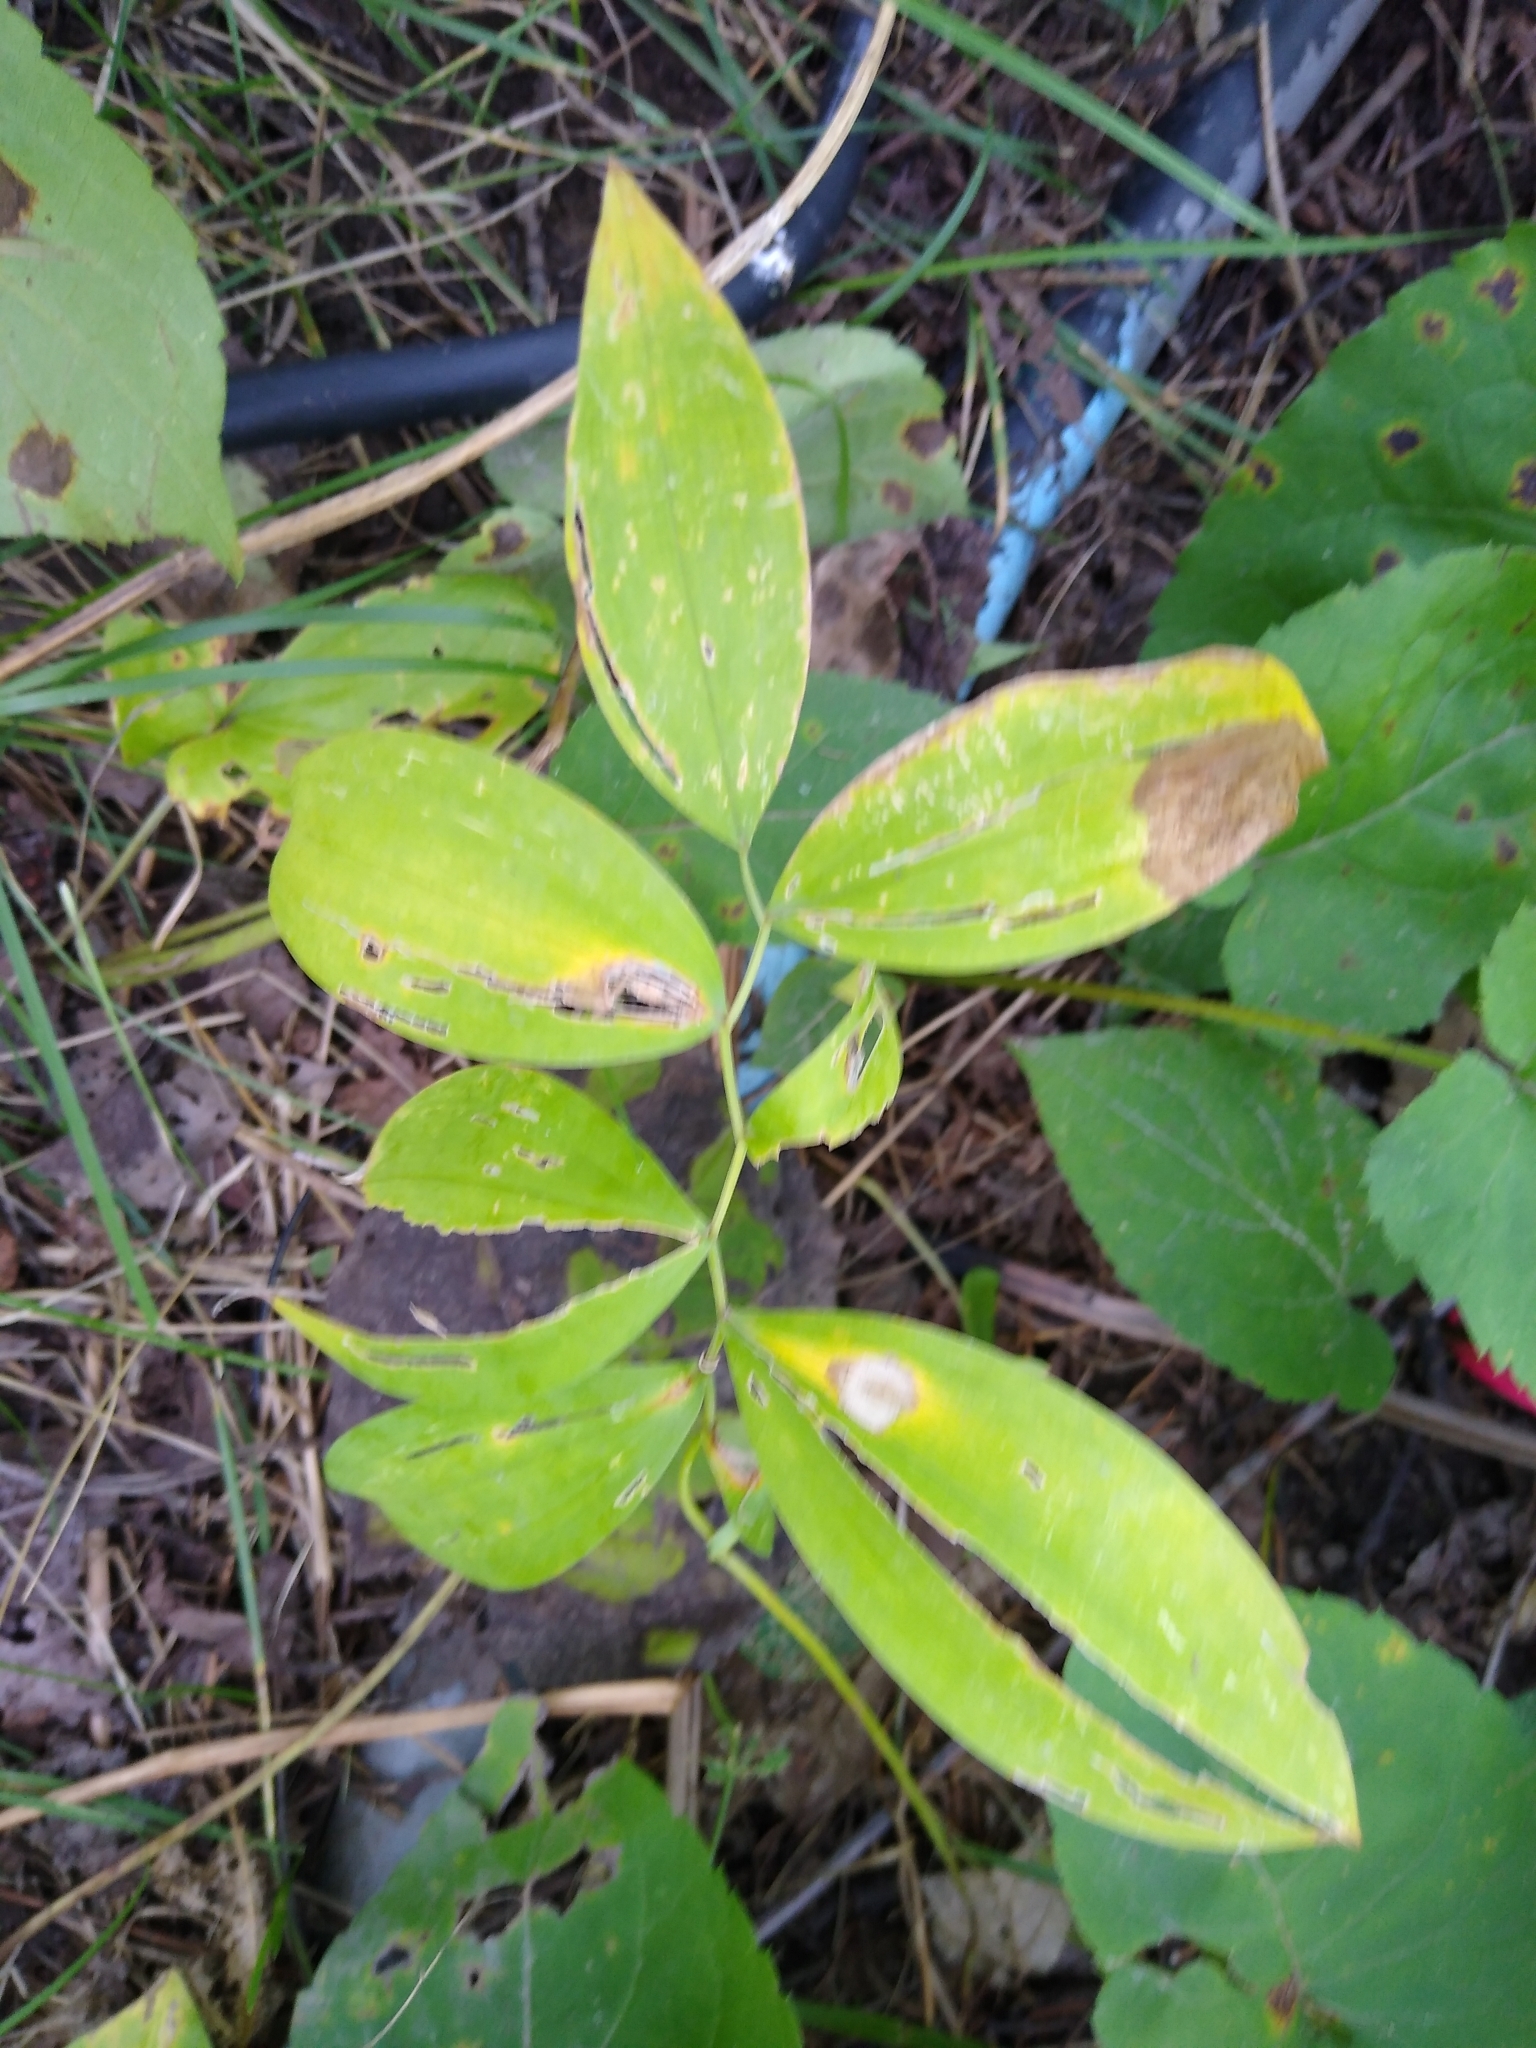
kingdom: Plantae
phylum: Tracheophyta
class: Liliopsida
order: Liliales
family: Colchicaceae
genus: Uvularia
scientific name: Uvularia sessilifolia
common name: Straw-lily
